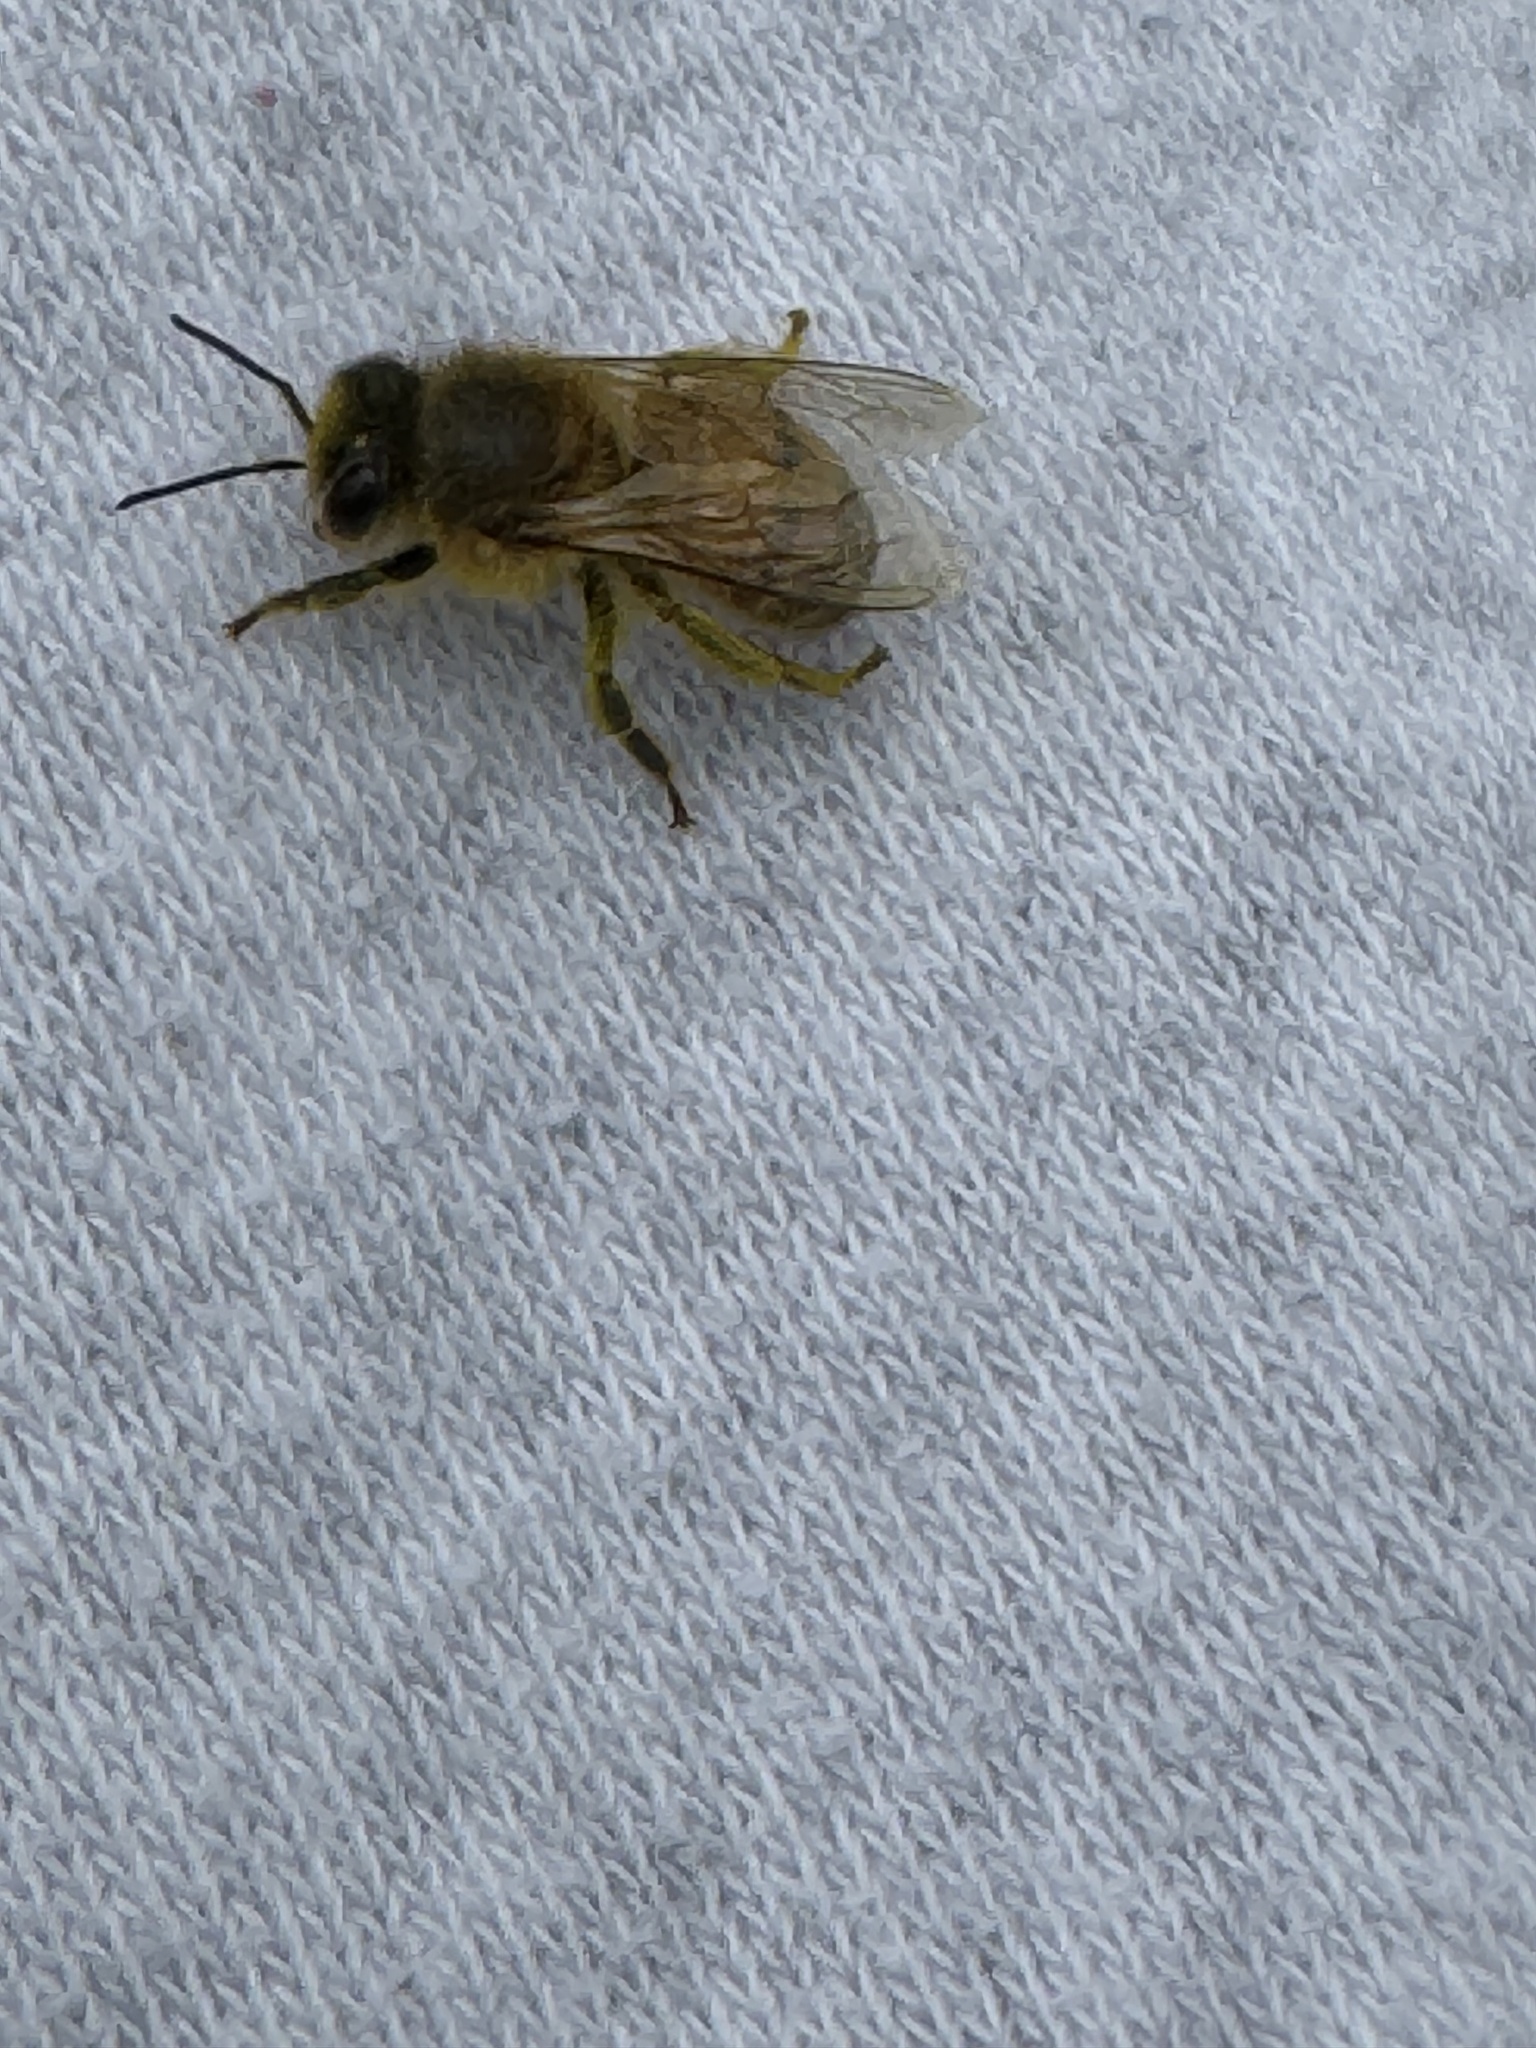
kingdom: Animalia
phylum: Arthropoda
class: Insecta
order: Hymenoptera
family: Apidae
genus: Apis
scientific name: Apis mellifera
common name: Honey bee
